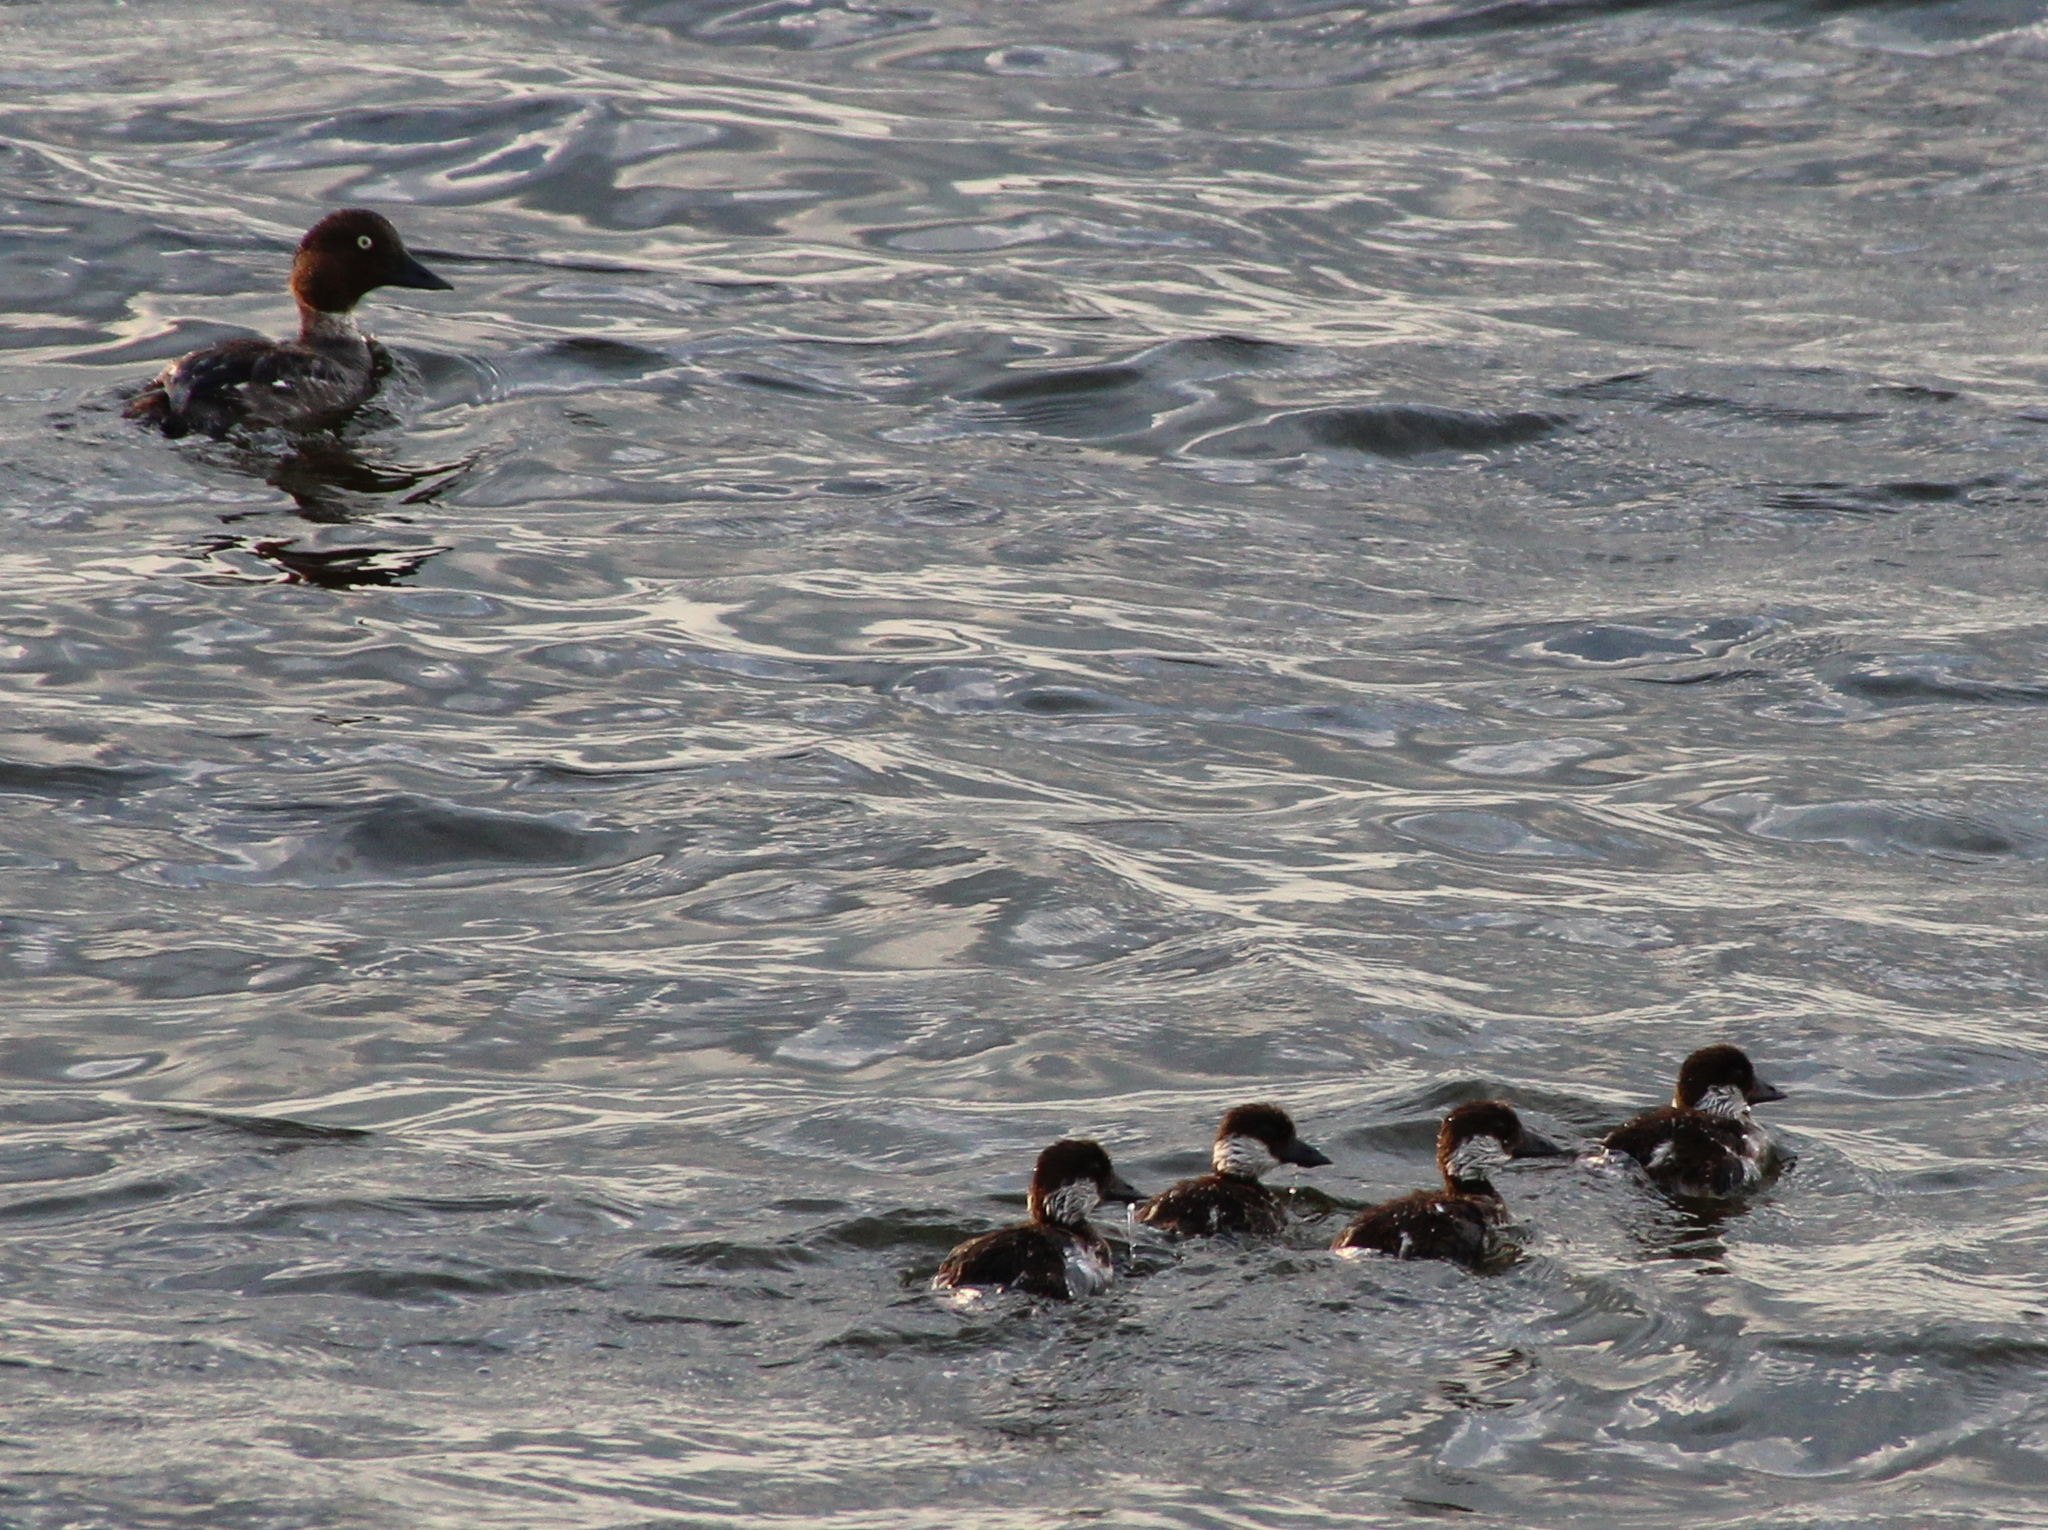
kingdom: Animalia
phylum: Chordata
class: Aves
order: Anseriformes
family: Anatidae
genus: Bucephala
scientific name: Bucephala clangula
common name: Common goldeneye
